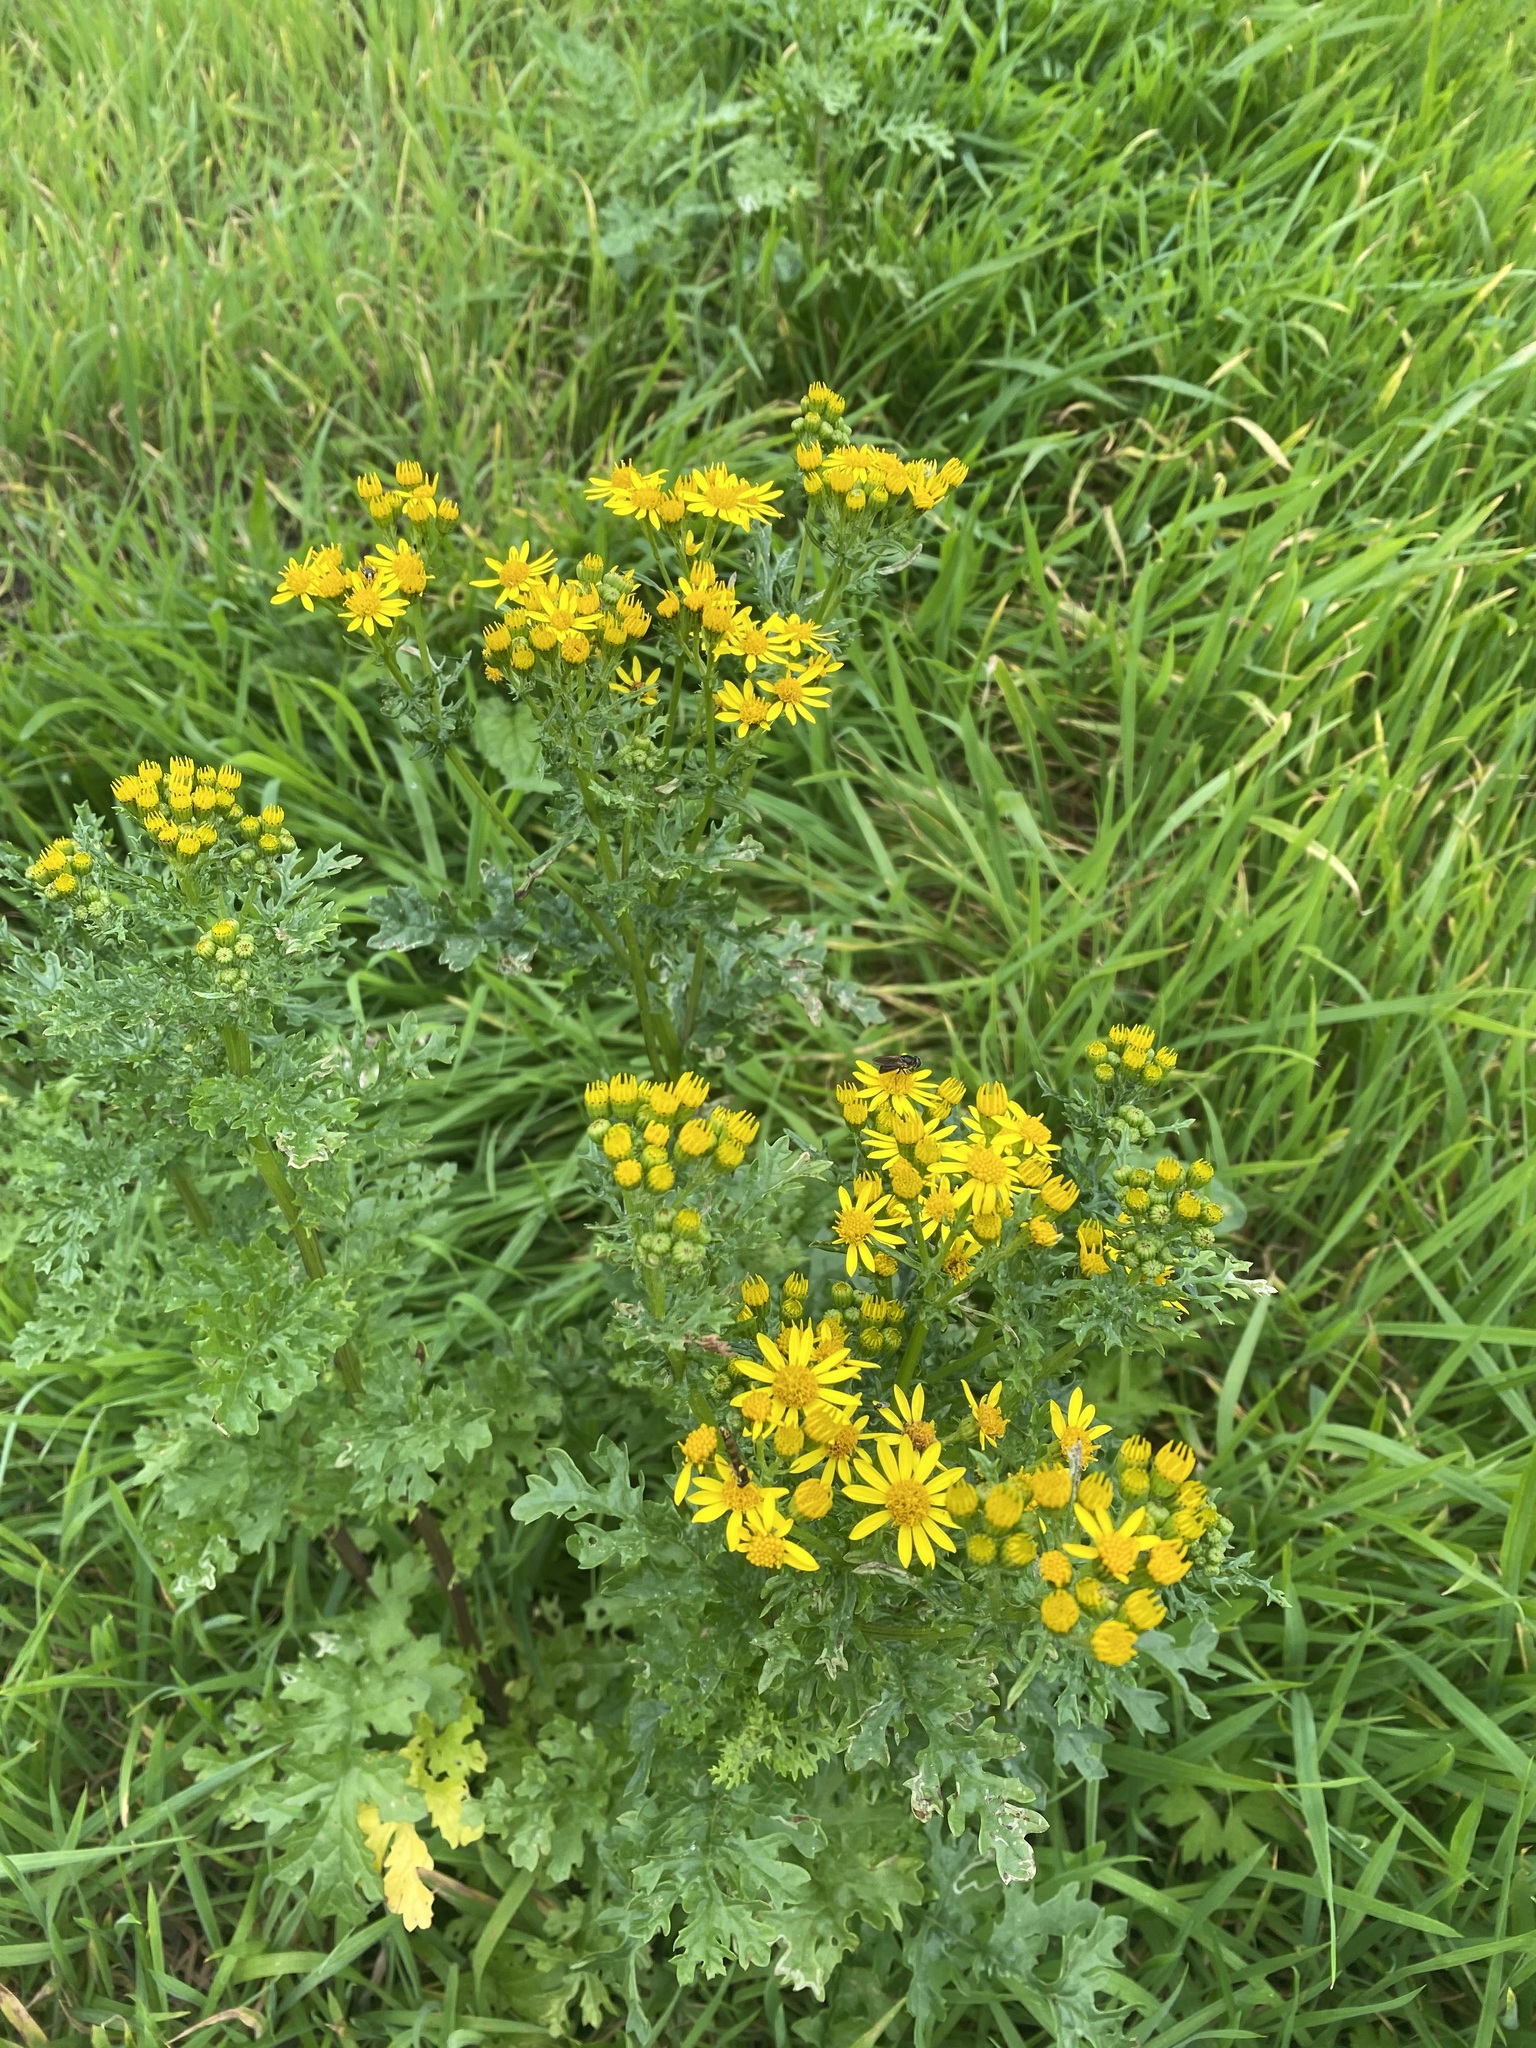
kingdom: Plantae
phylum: Tracheophyta
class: Magnoliopsida
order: Asterales
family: Asteraceae
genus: Jacobaea
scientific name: Jacobaea vulgaris
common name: Stinking willie
